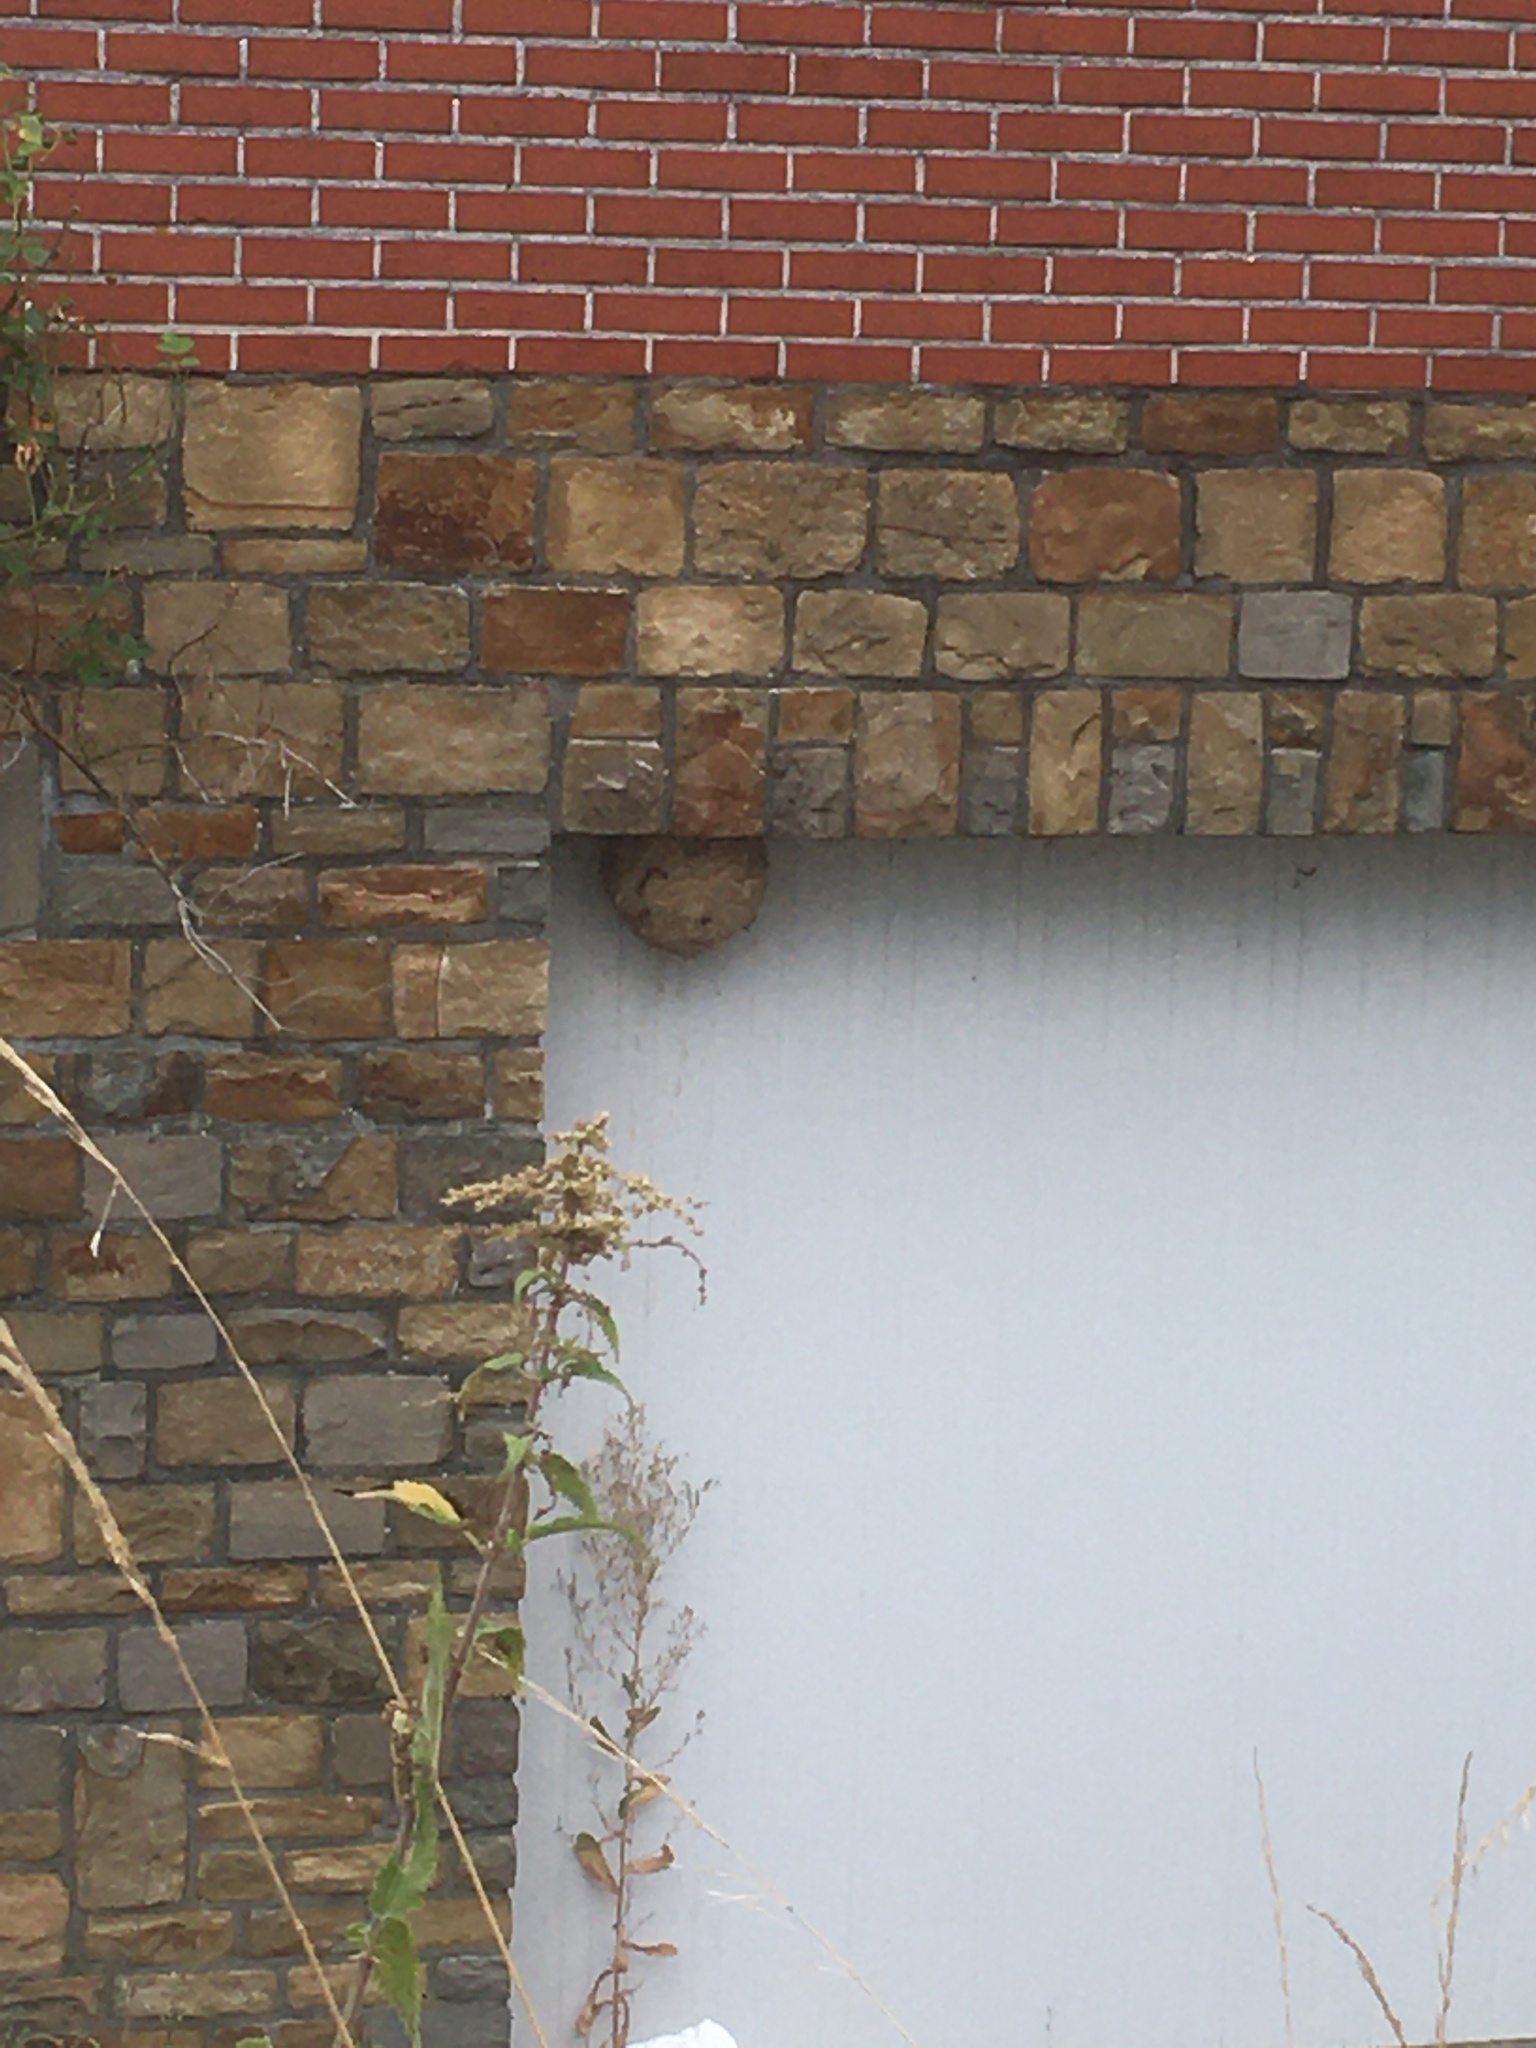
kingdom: Animalia
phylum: Arthropoda
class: Insecta
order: Hymenoptera
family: Vespidae
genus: Vespa
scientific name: Vespa velutina
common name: Asian hornet
